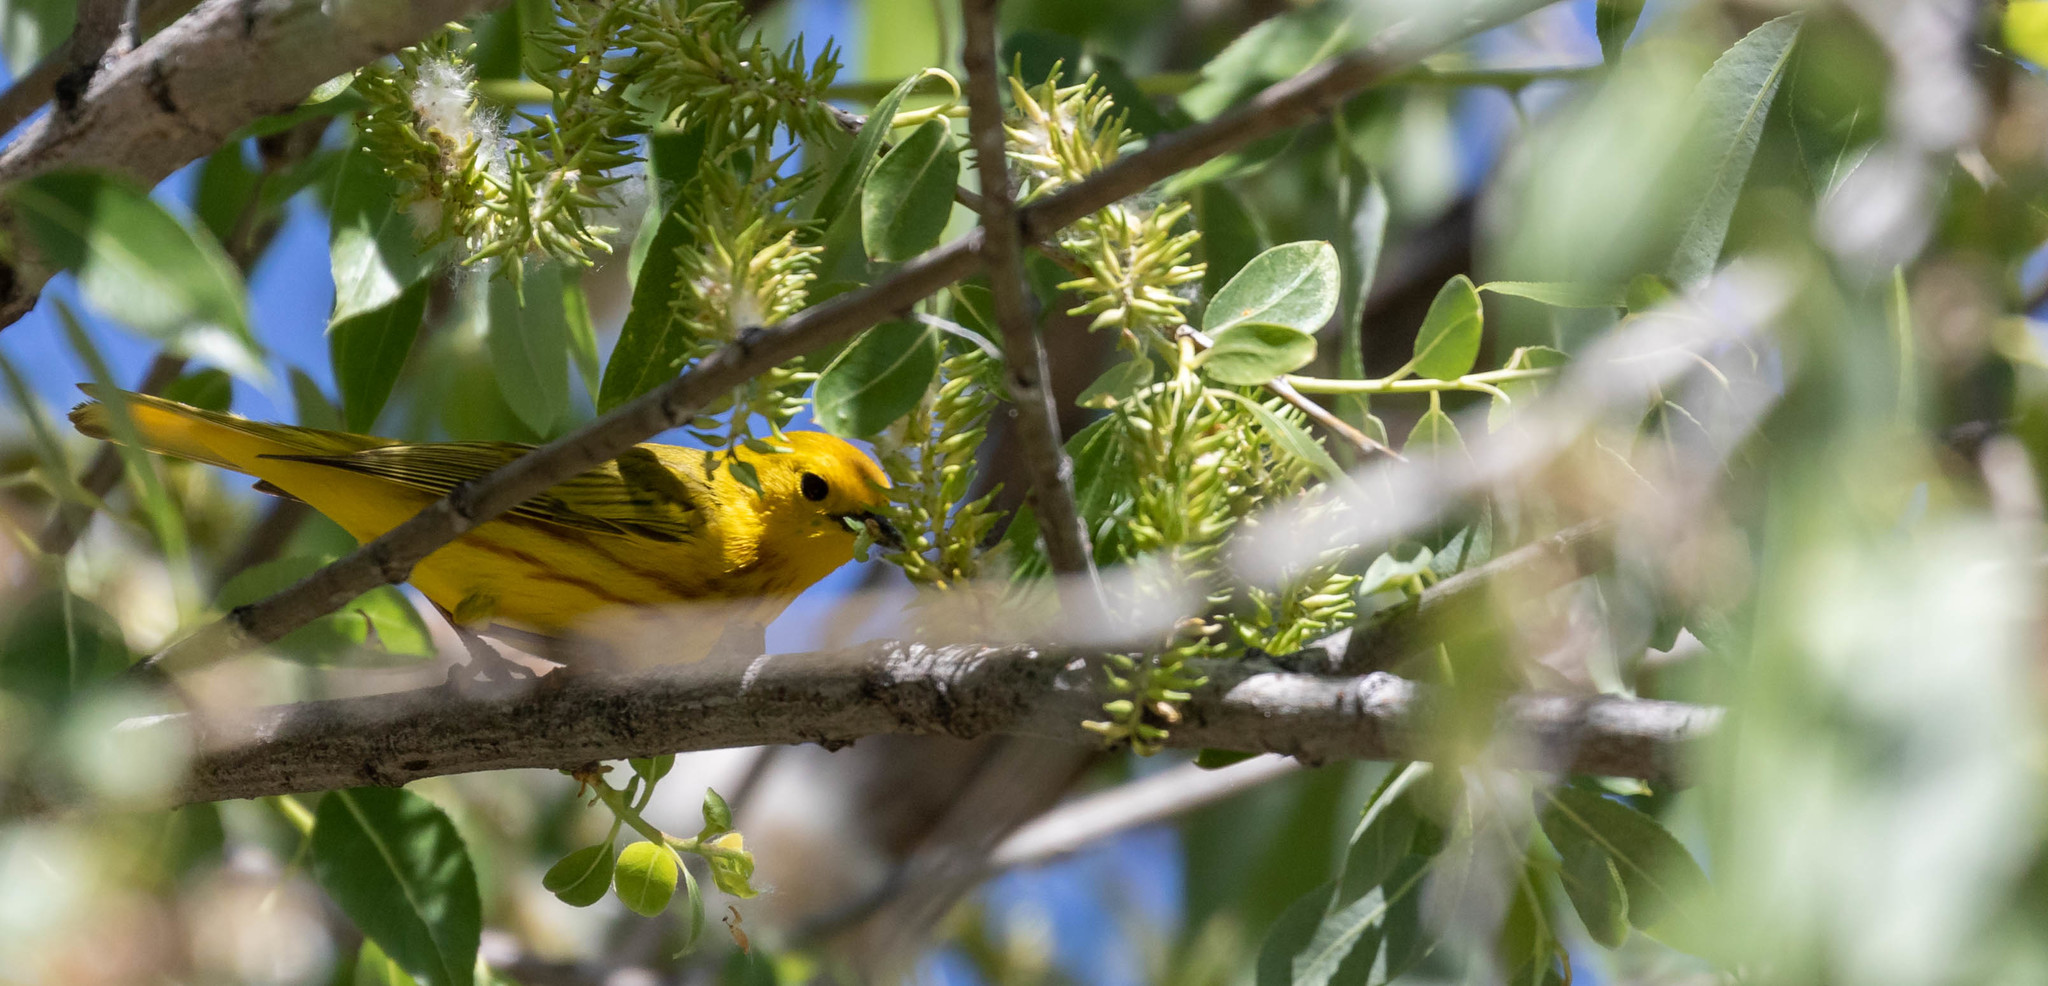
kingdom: Animalia
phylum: Chordata
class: Aves
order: Passeriformes
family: Parulidae
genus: Setophaga
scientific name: Setophaga petechia
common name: Yellow warbler
